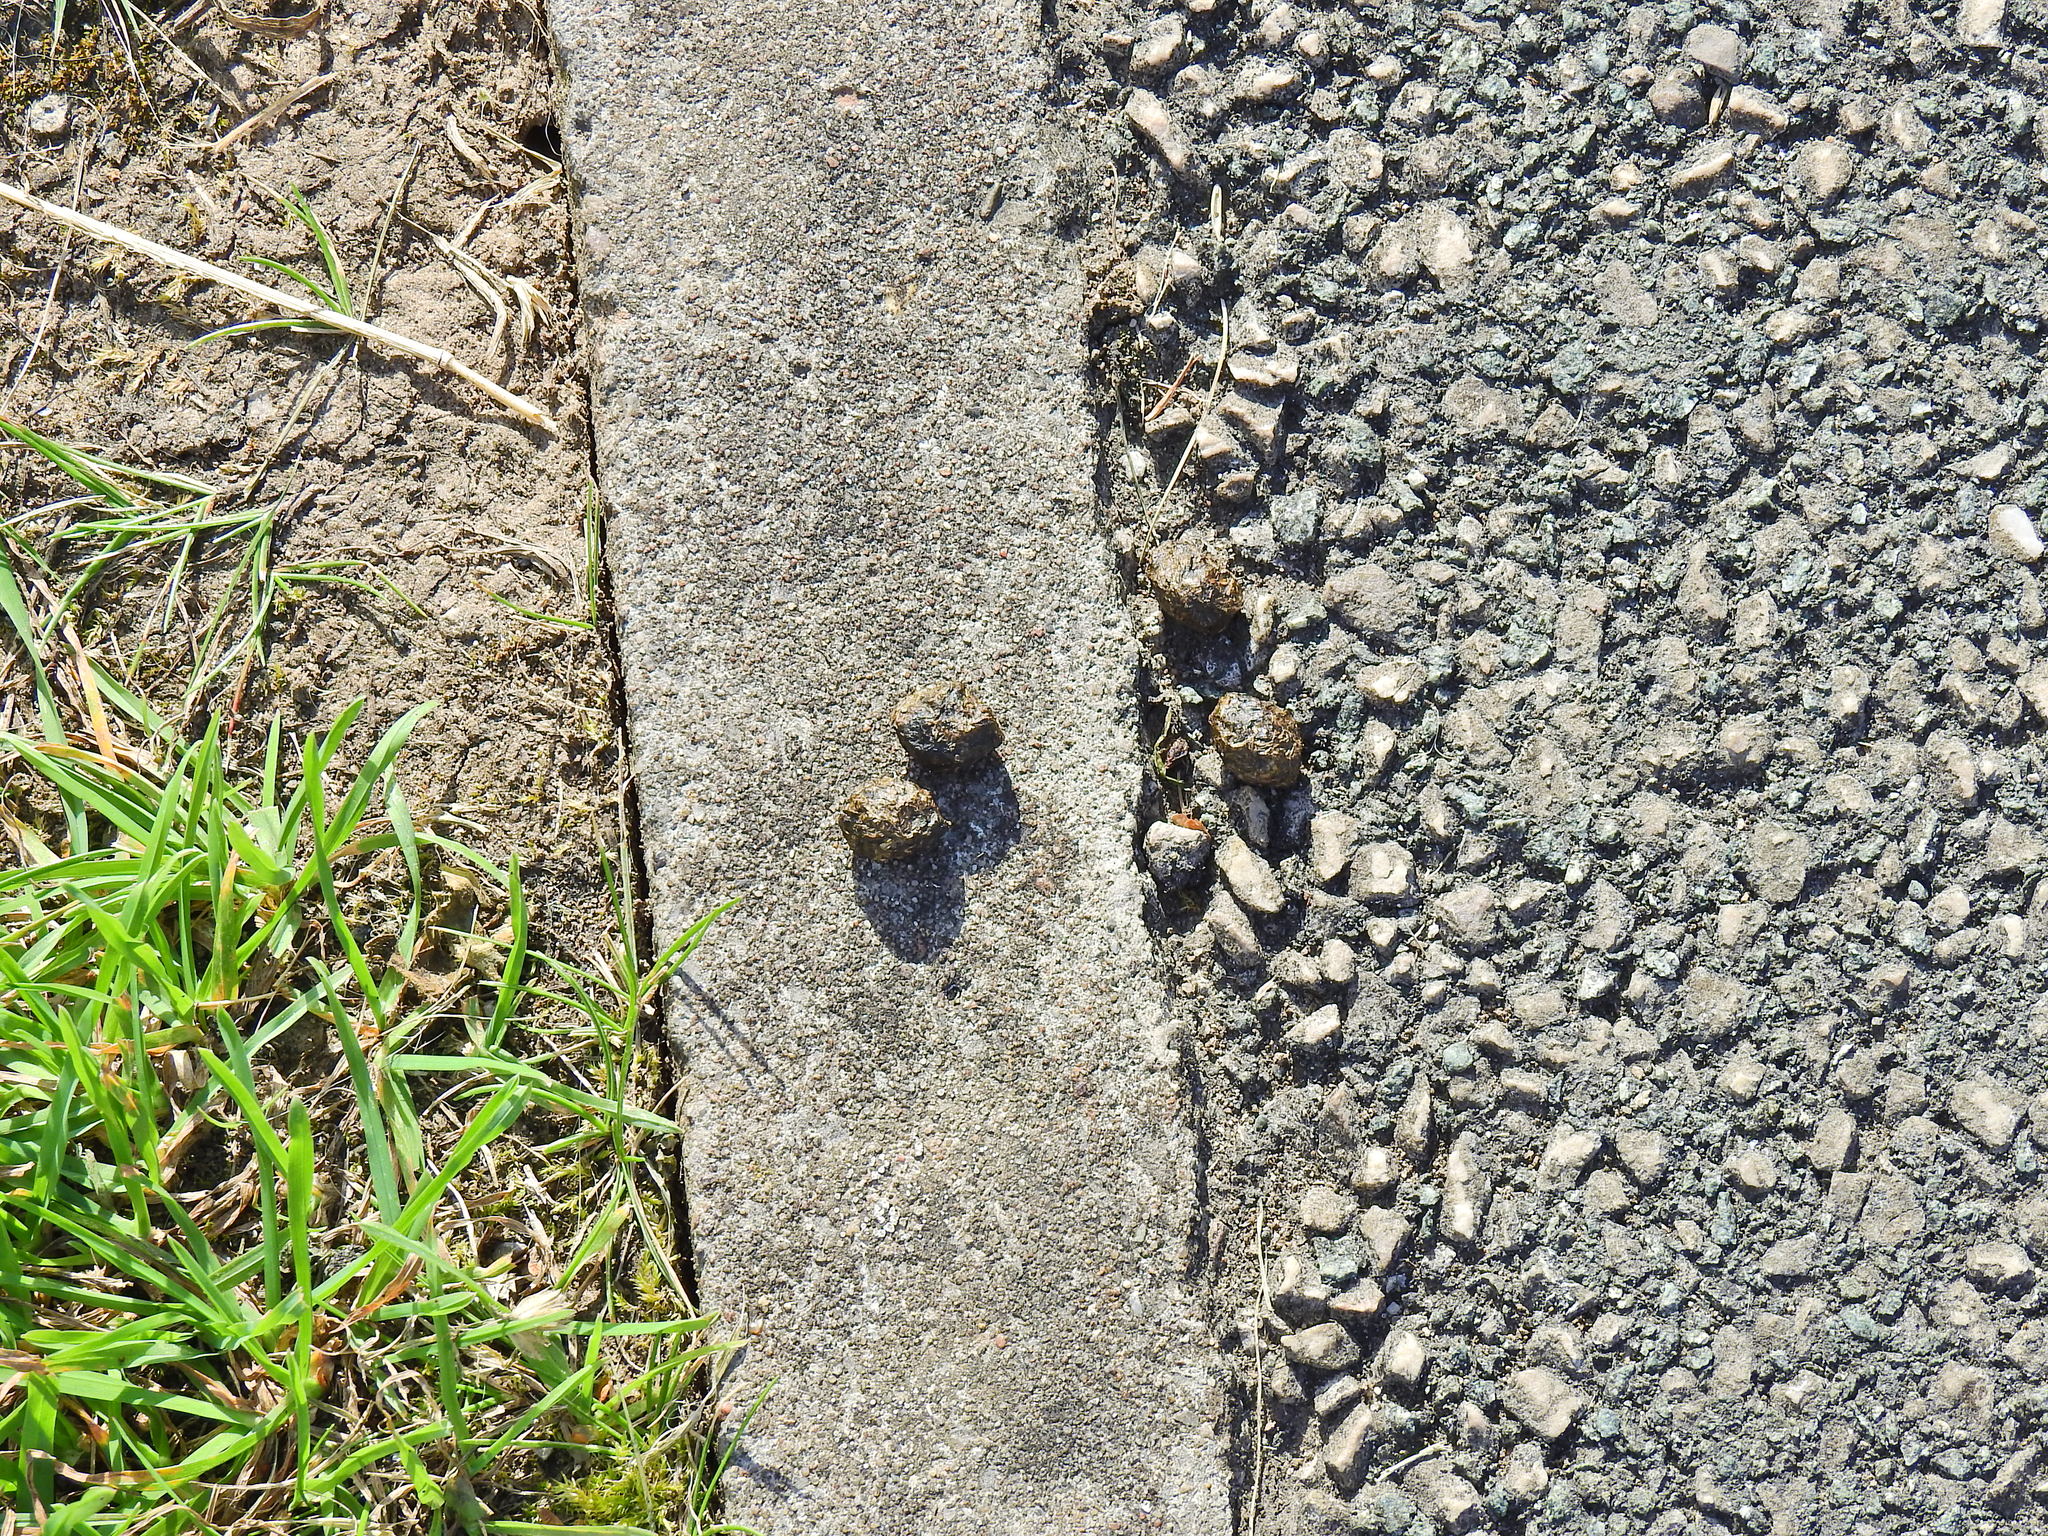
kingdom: Animalia
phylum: Chordata
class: Mammalia
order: Lagomorpha
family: Leporidae
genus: Oryctolagus
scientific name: Oryctolagus cuniculus
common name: European rabbit
